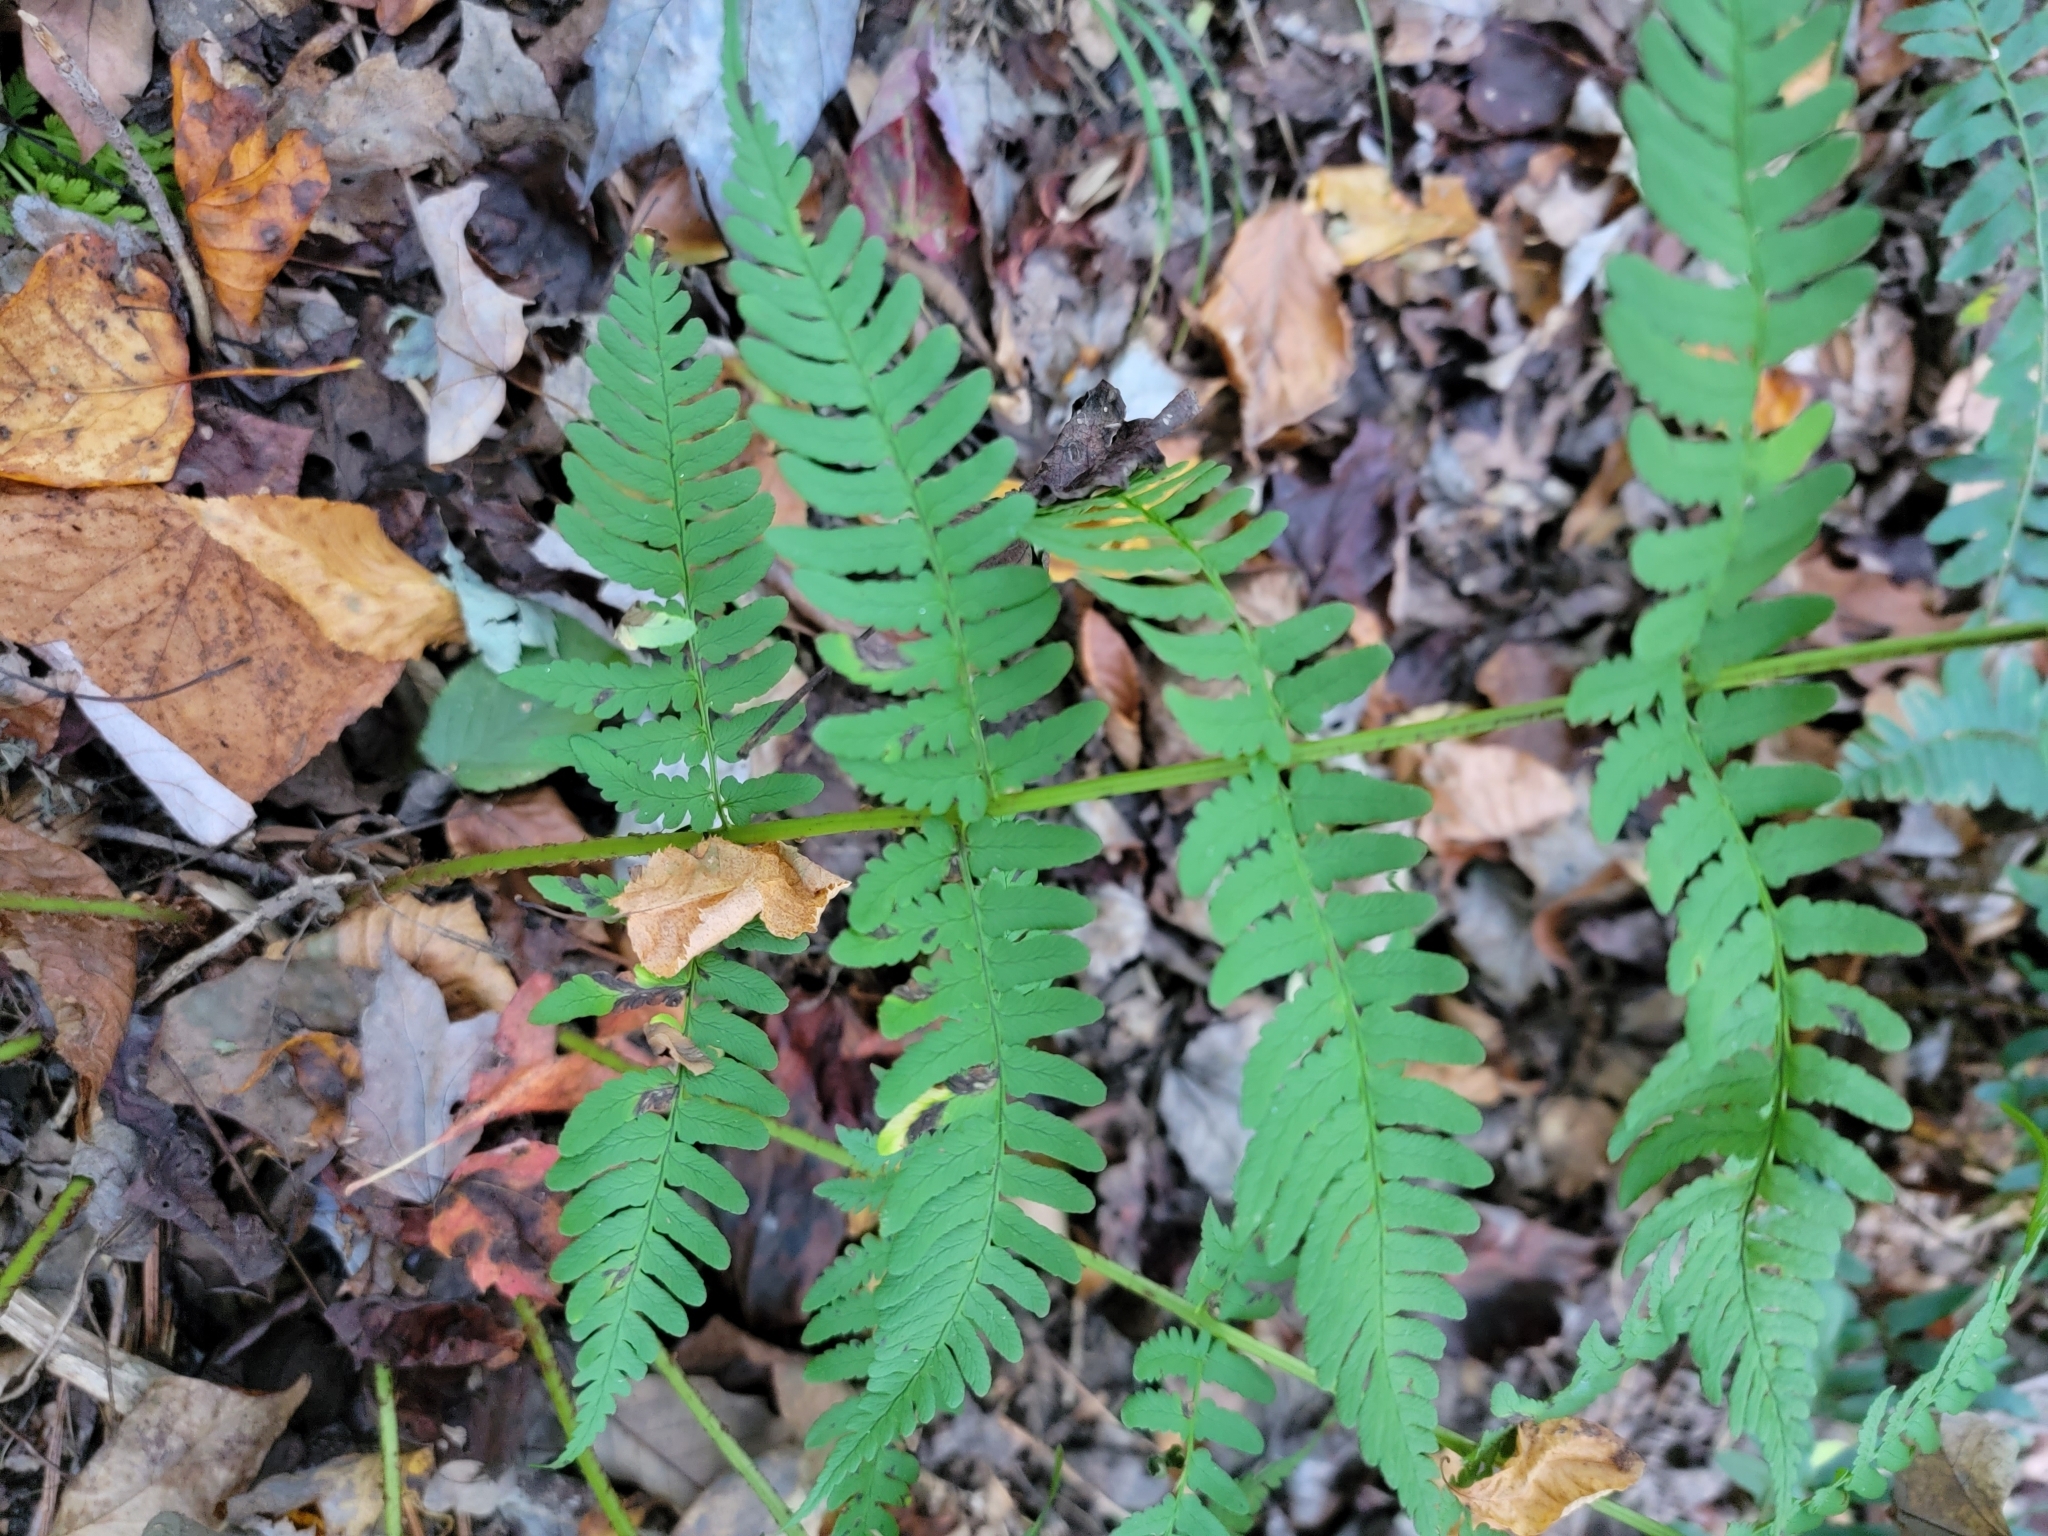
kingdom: Plantae
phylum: Tracheophyta
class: Polypodiopsida
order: Polypodiales
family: Dryopteridaceae
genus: Dryopteris
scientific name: Dryopteris marginalis
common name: Marginal wood fern
